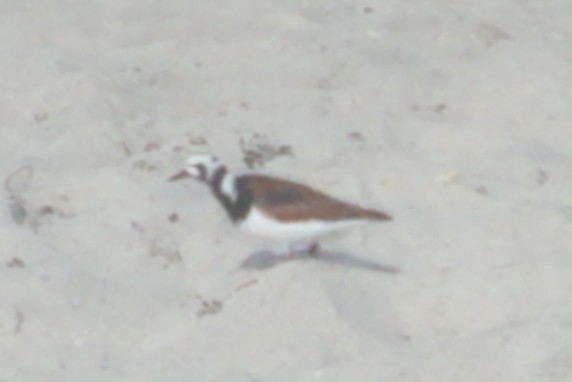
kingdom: Animalia
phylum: Chordata
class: Aves
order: Charadriiformes
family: Scolopacidae
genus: Arenaria
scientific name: Arenaria interpres
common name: Ruddy turnstone
